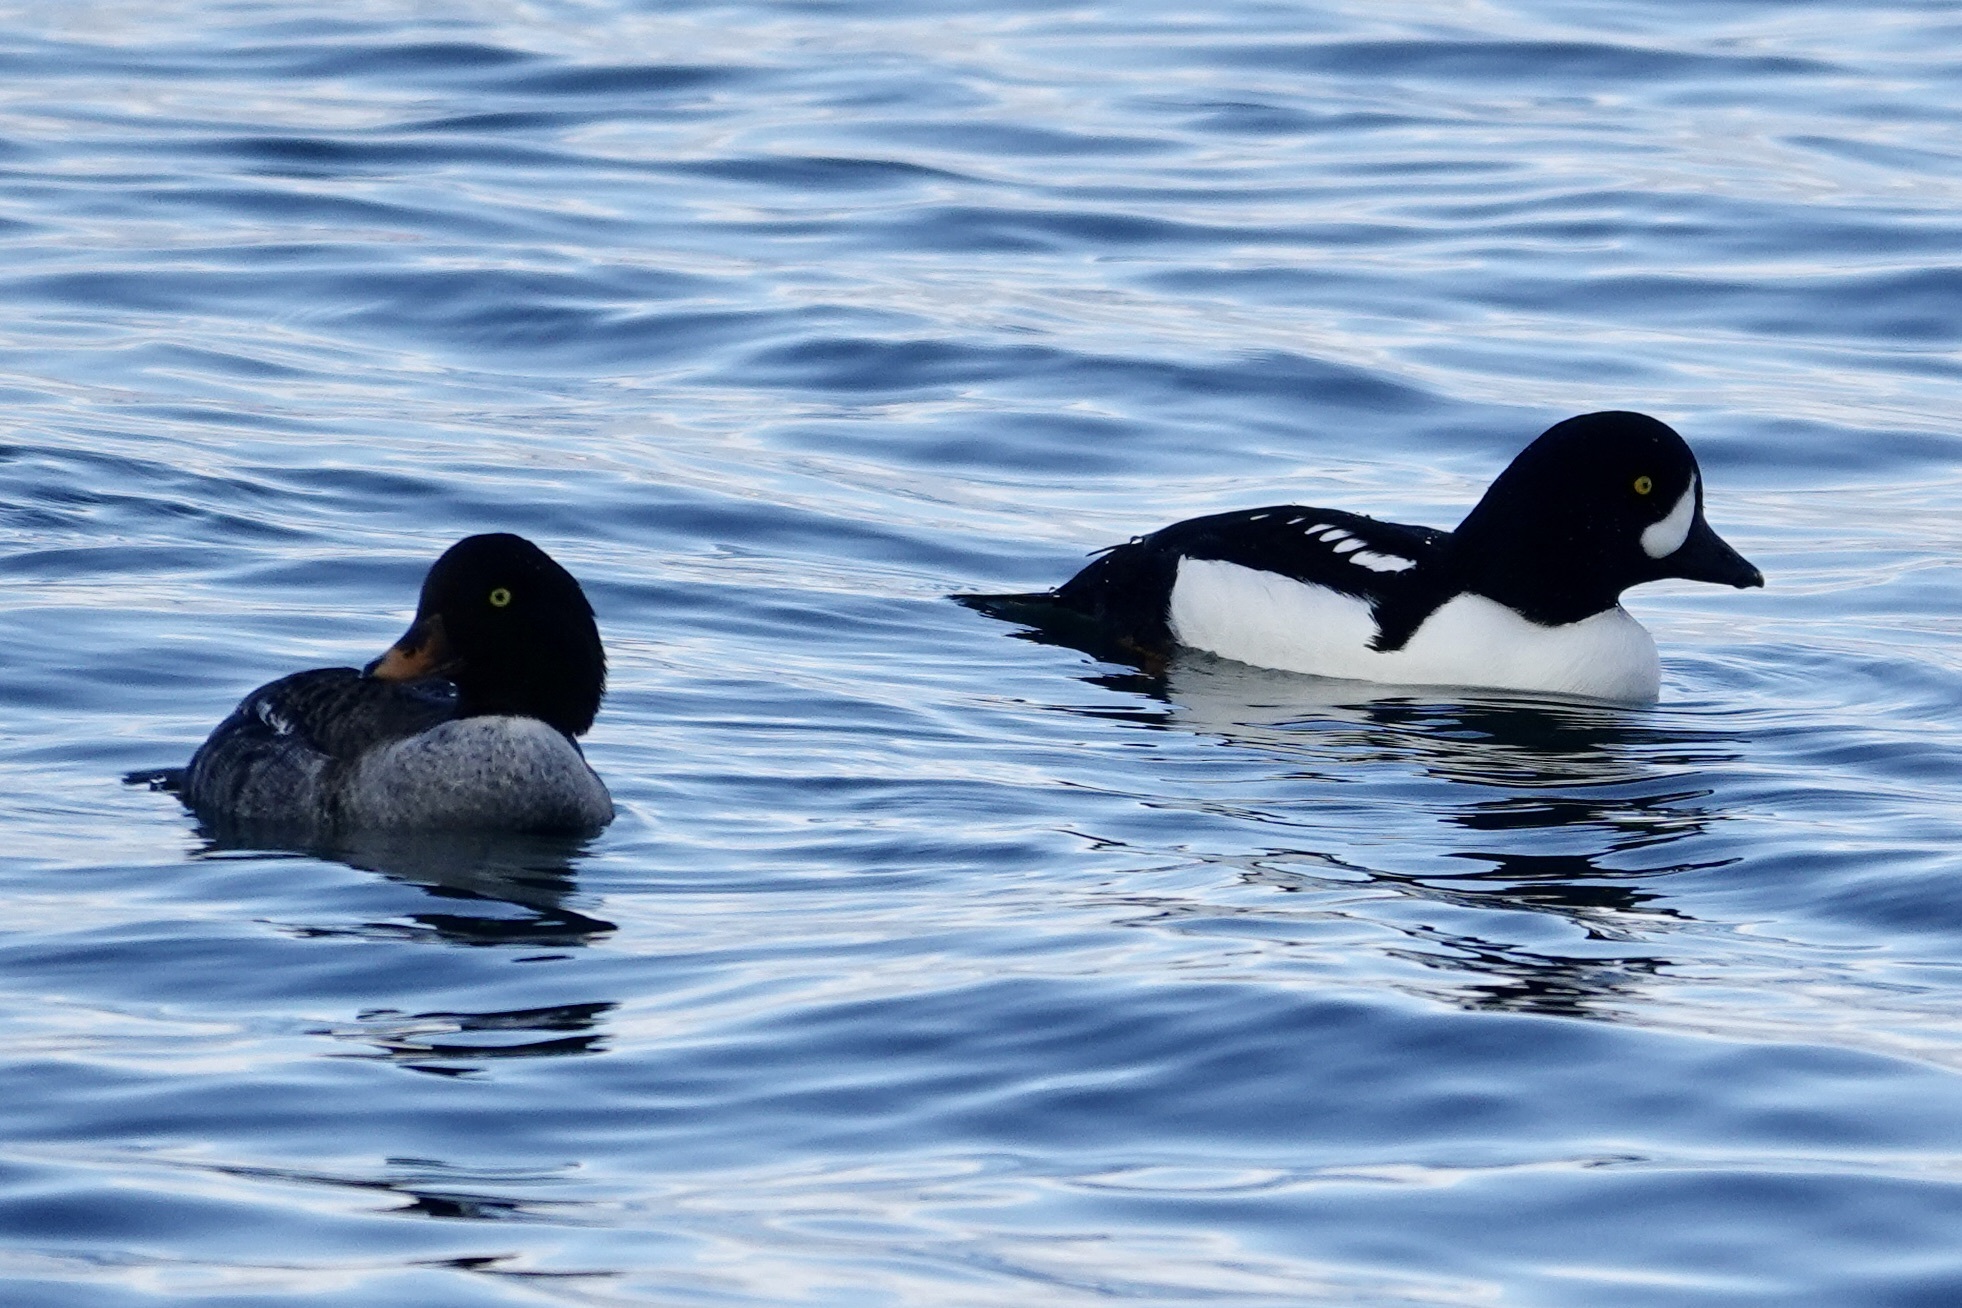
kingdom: Animalia
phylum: Chordata
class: Aves
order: Anseriformes
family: Anatidae
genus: Bucephala
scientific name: Bucephala islandica
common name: Barrow's goldeneye
